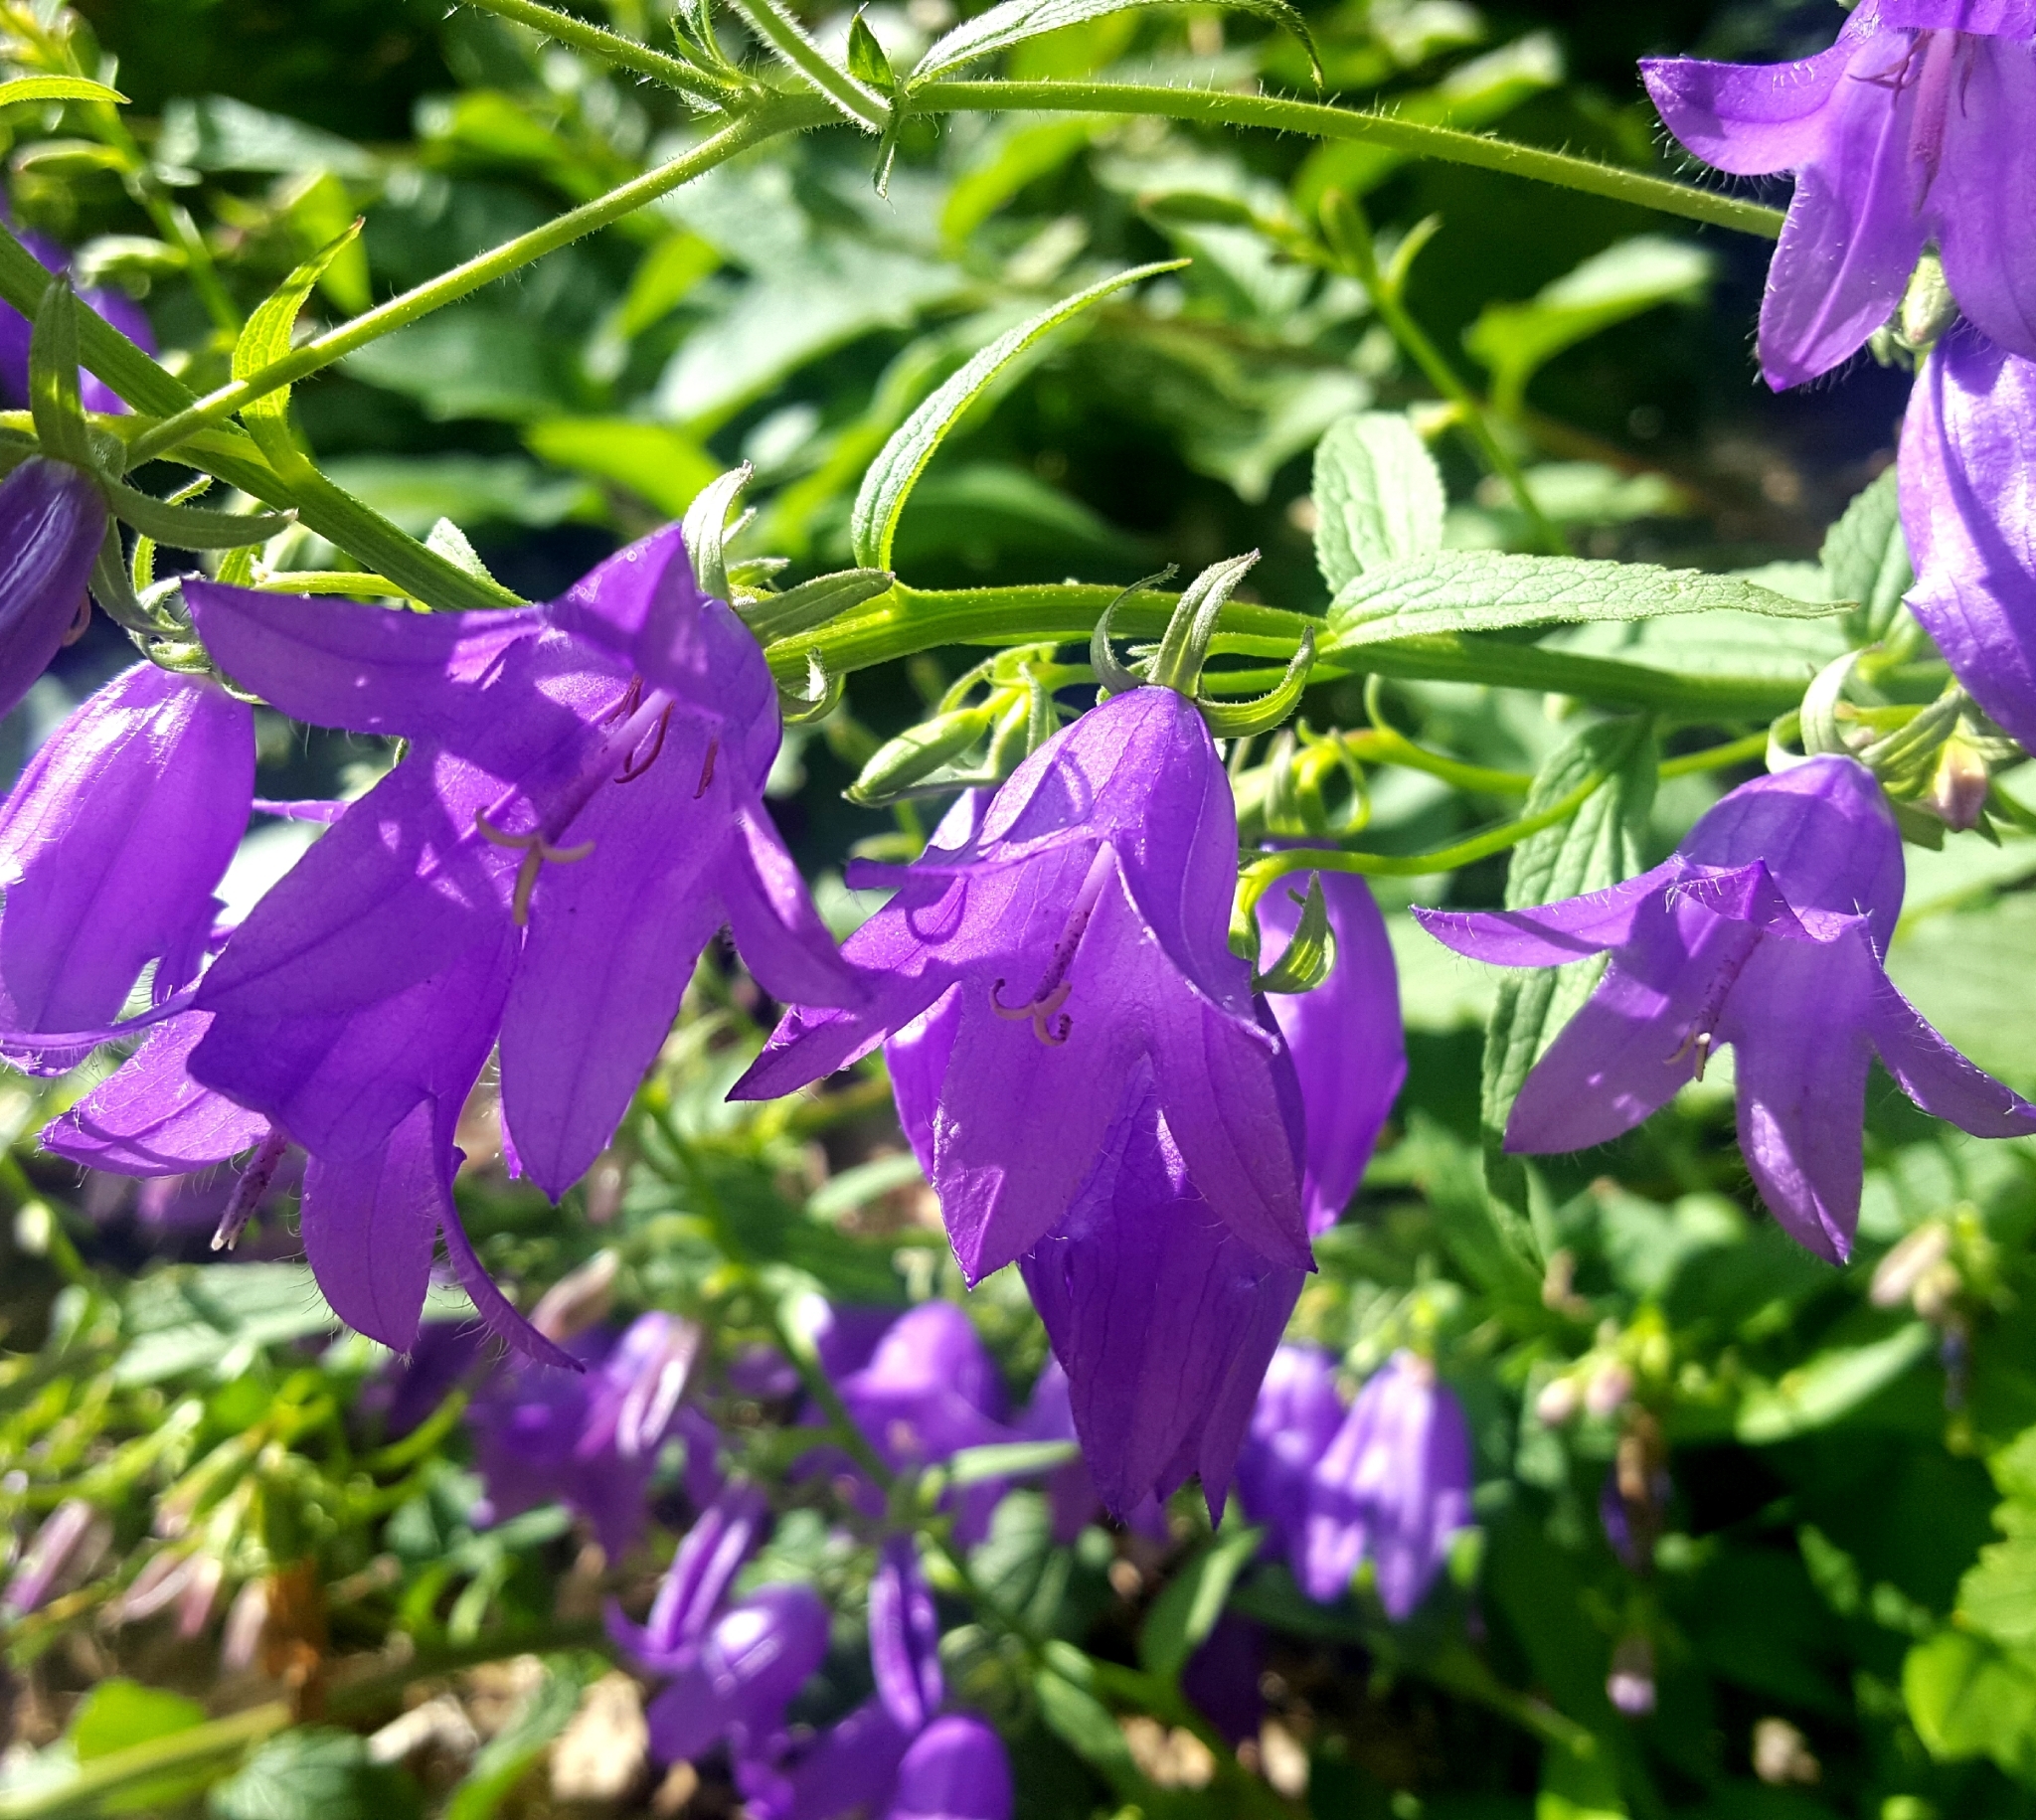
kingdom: Plantae
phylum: Tracheophyta
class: Magnoliopsida
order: Asterales
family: Campanulaceae
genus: Campanula
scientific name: Campanula rapunculoides
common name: Creeping bellflower
